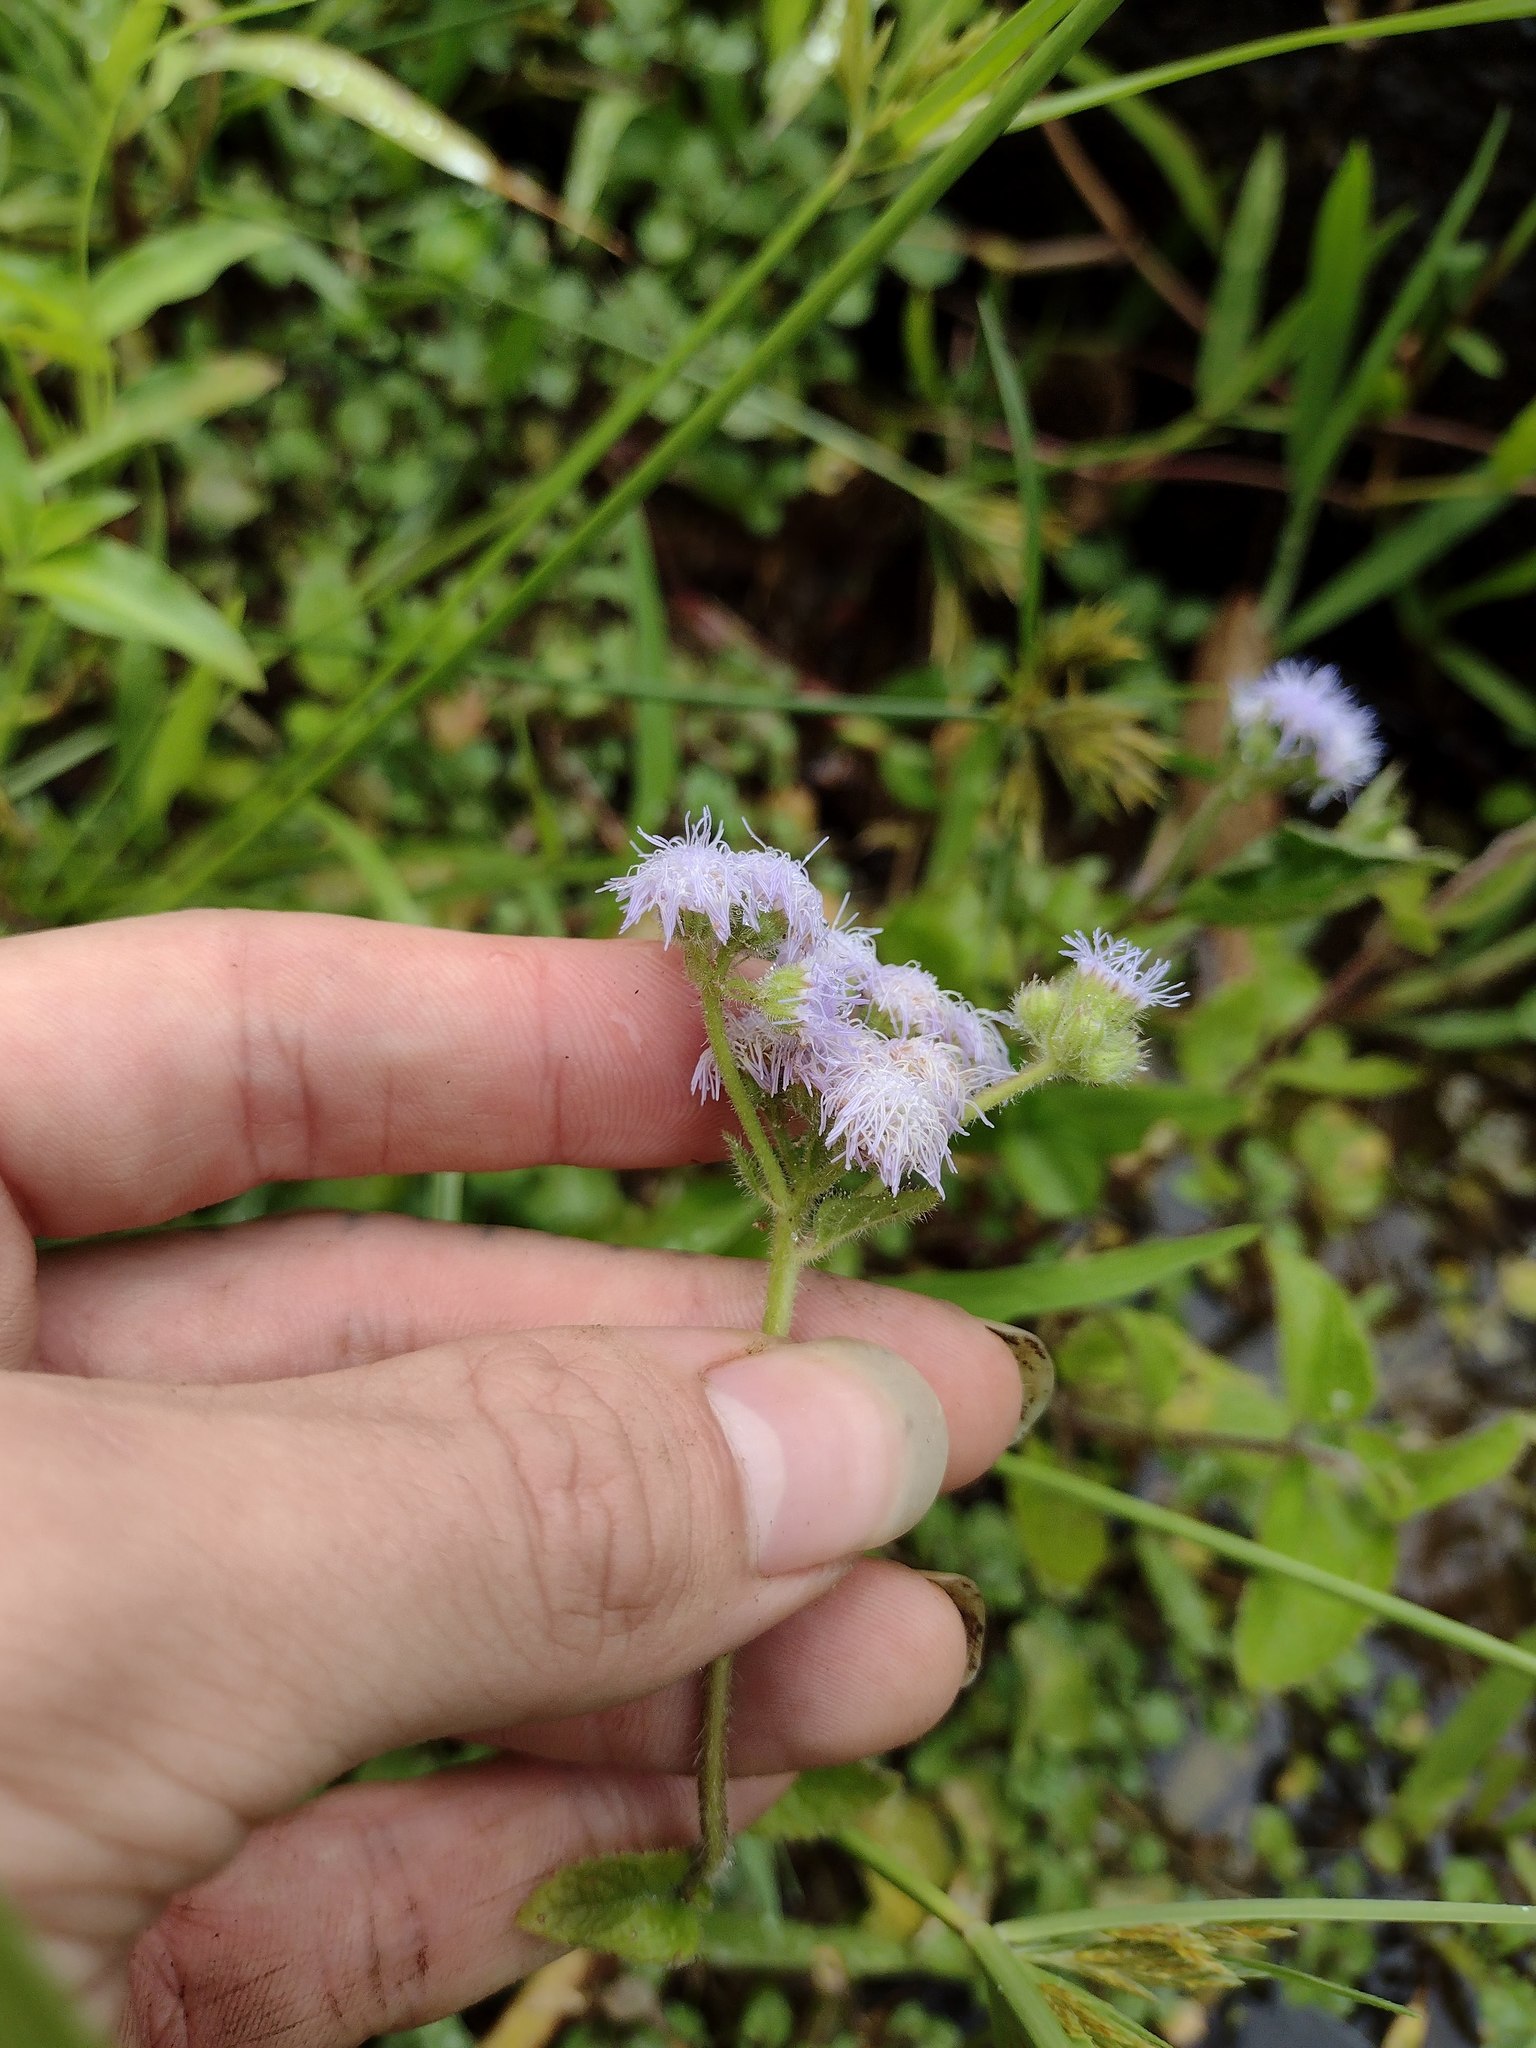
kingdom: Plantae
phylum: Tracheophyta
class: Magnoliopsida
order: Asterales
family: Asteraceae
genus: Ageratum
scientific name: Ageratum houstonianum
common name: Bluemink
